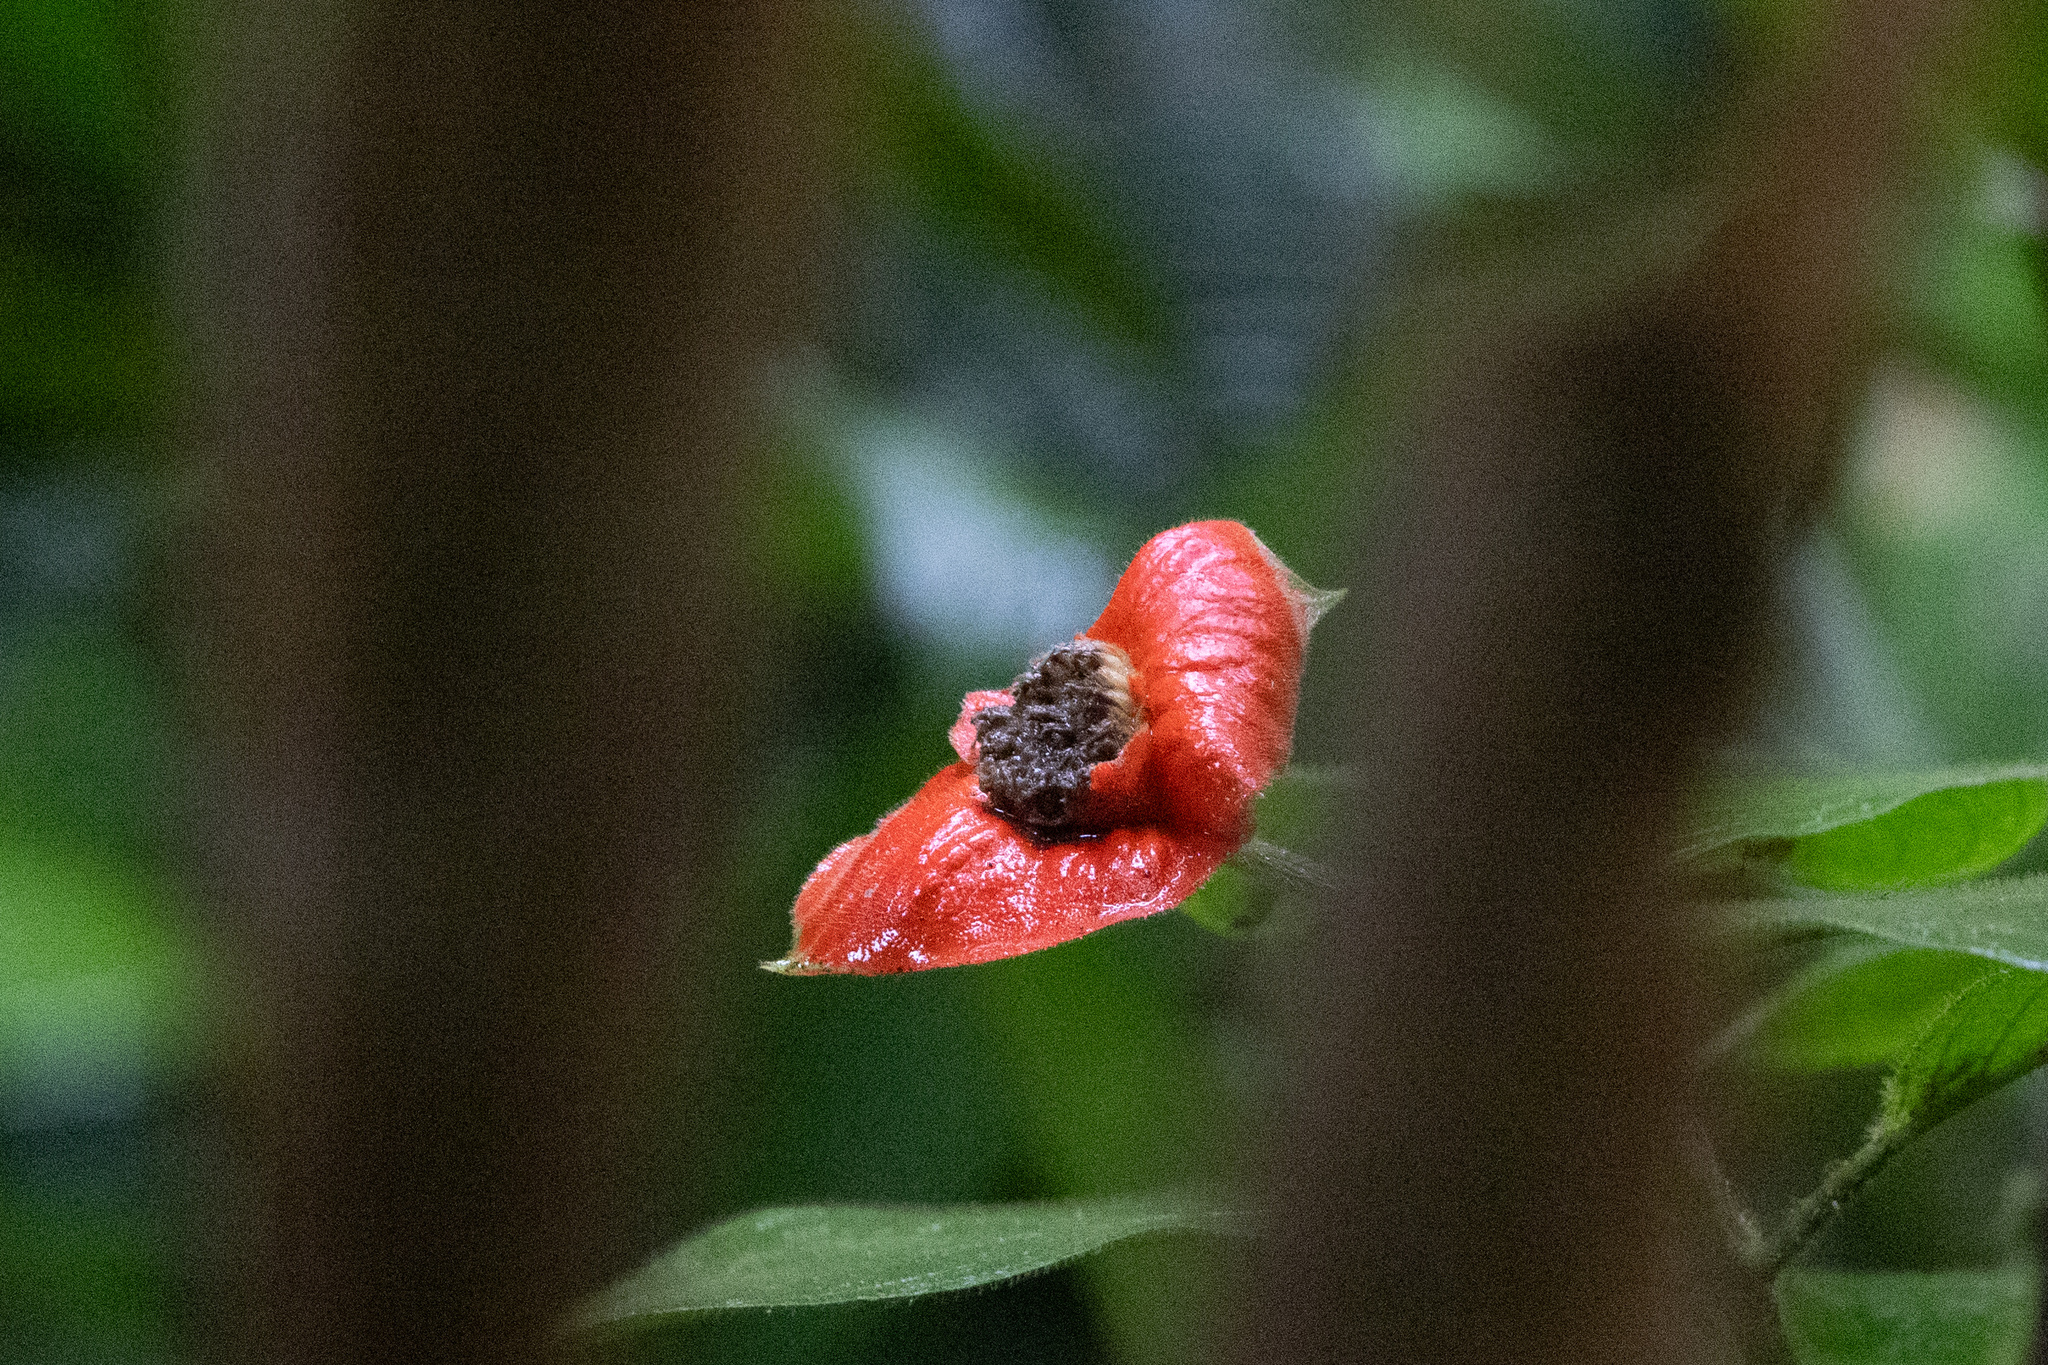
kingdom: Plantae
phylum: Tracheophyta
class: Magnoliopsida
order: Gentianales
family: Rubiaceae
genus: Palicourea
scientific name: Palicourea tomentosa
